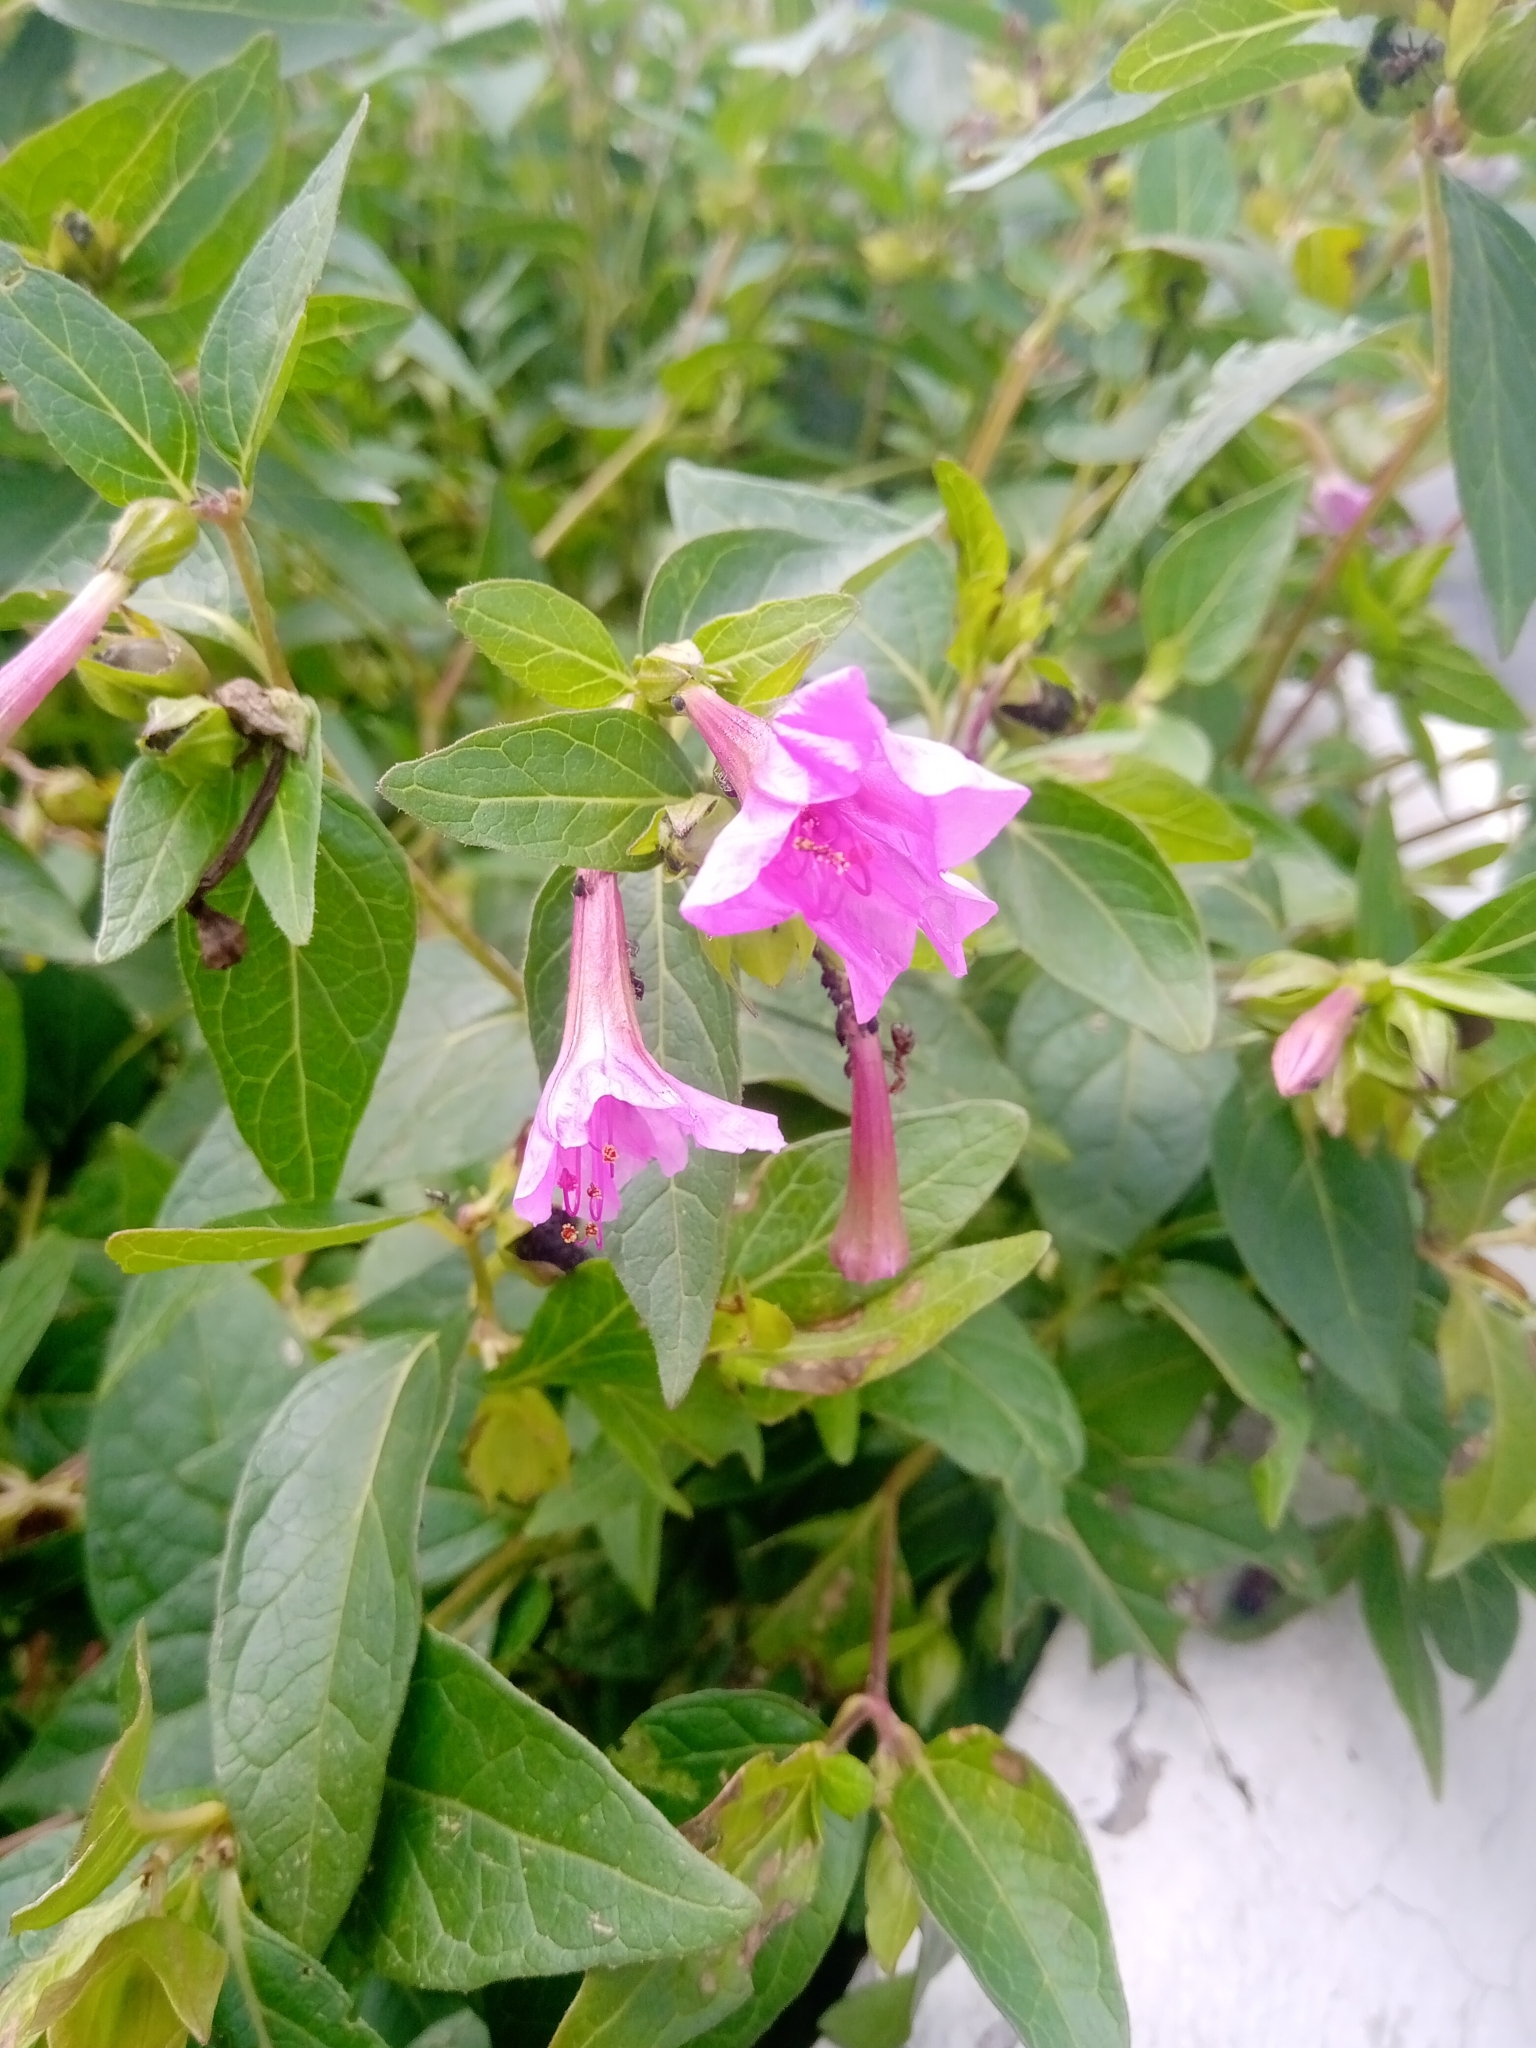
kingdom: Plantae
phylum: Tracheophyta
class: Magnoliopsida
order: Caryophyllales
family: Nyctaginaceae
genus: Mirabilis
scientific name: Mirabilis jalapa
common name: Marvel-of-peru
